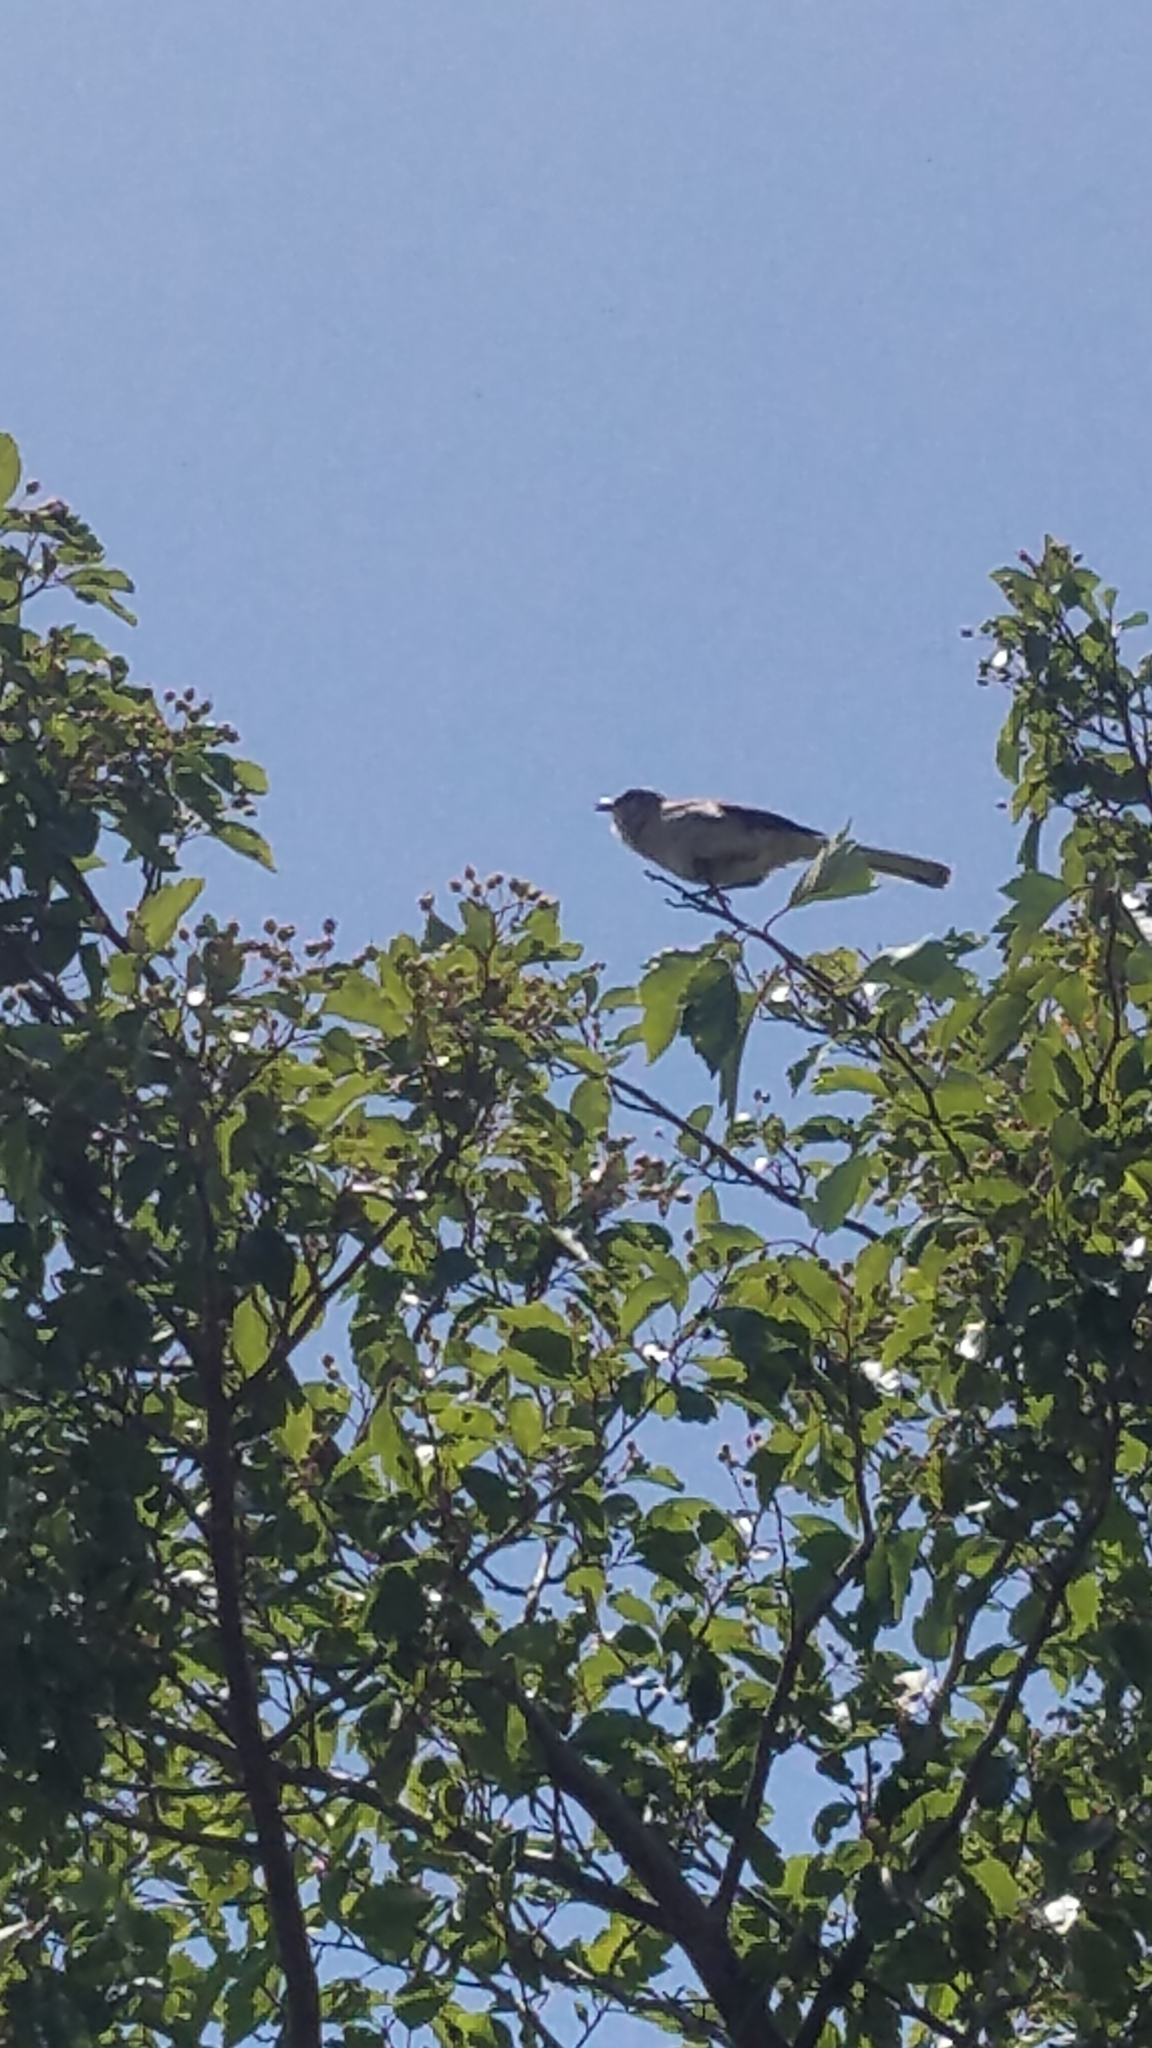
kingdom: Animalia
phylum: Chordata
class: Aves
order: Passeriformes
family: Mimidae
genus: Mimus
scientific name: Mimus polyglottos
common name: Northern mockingbird
